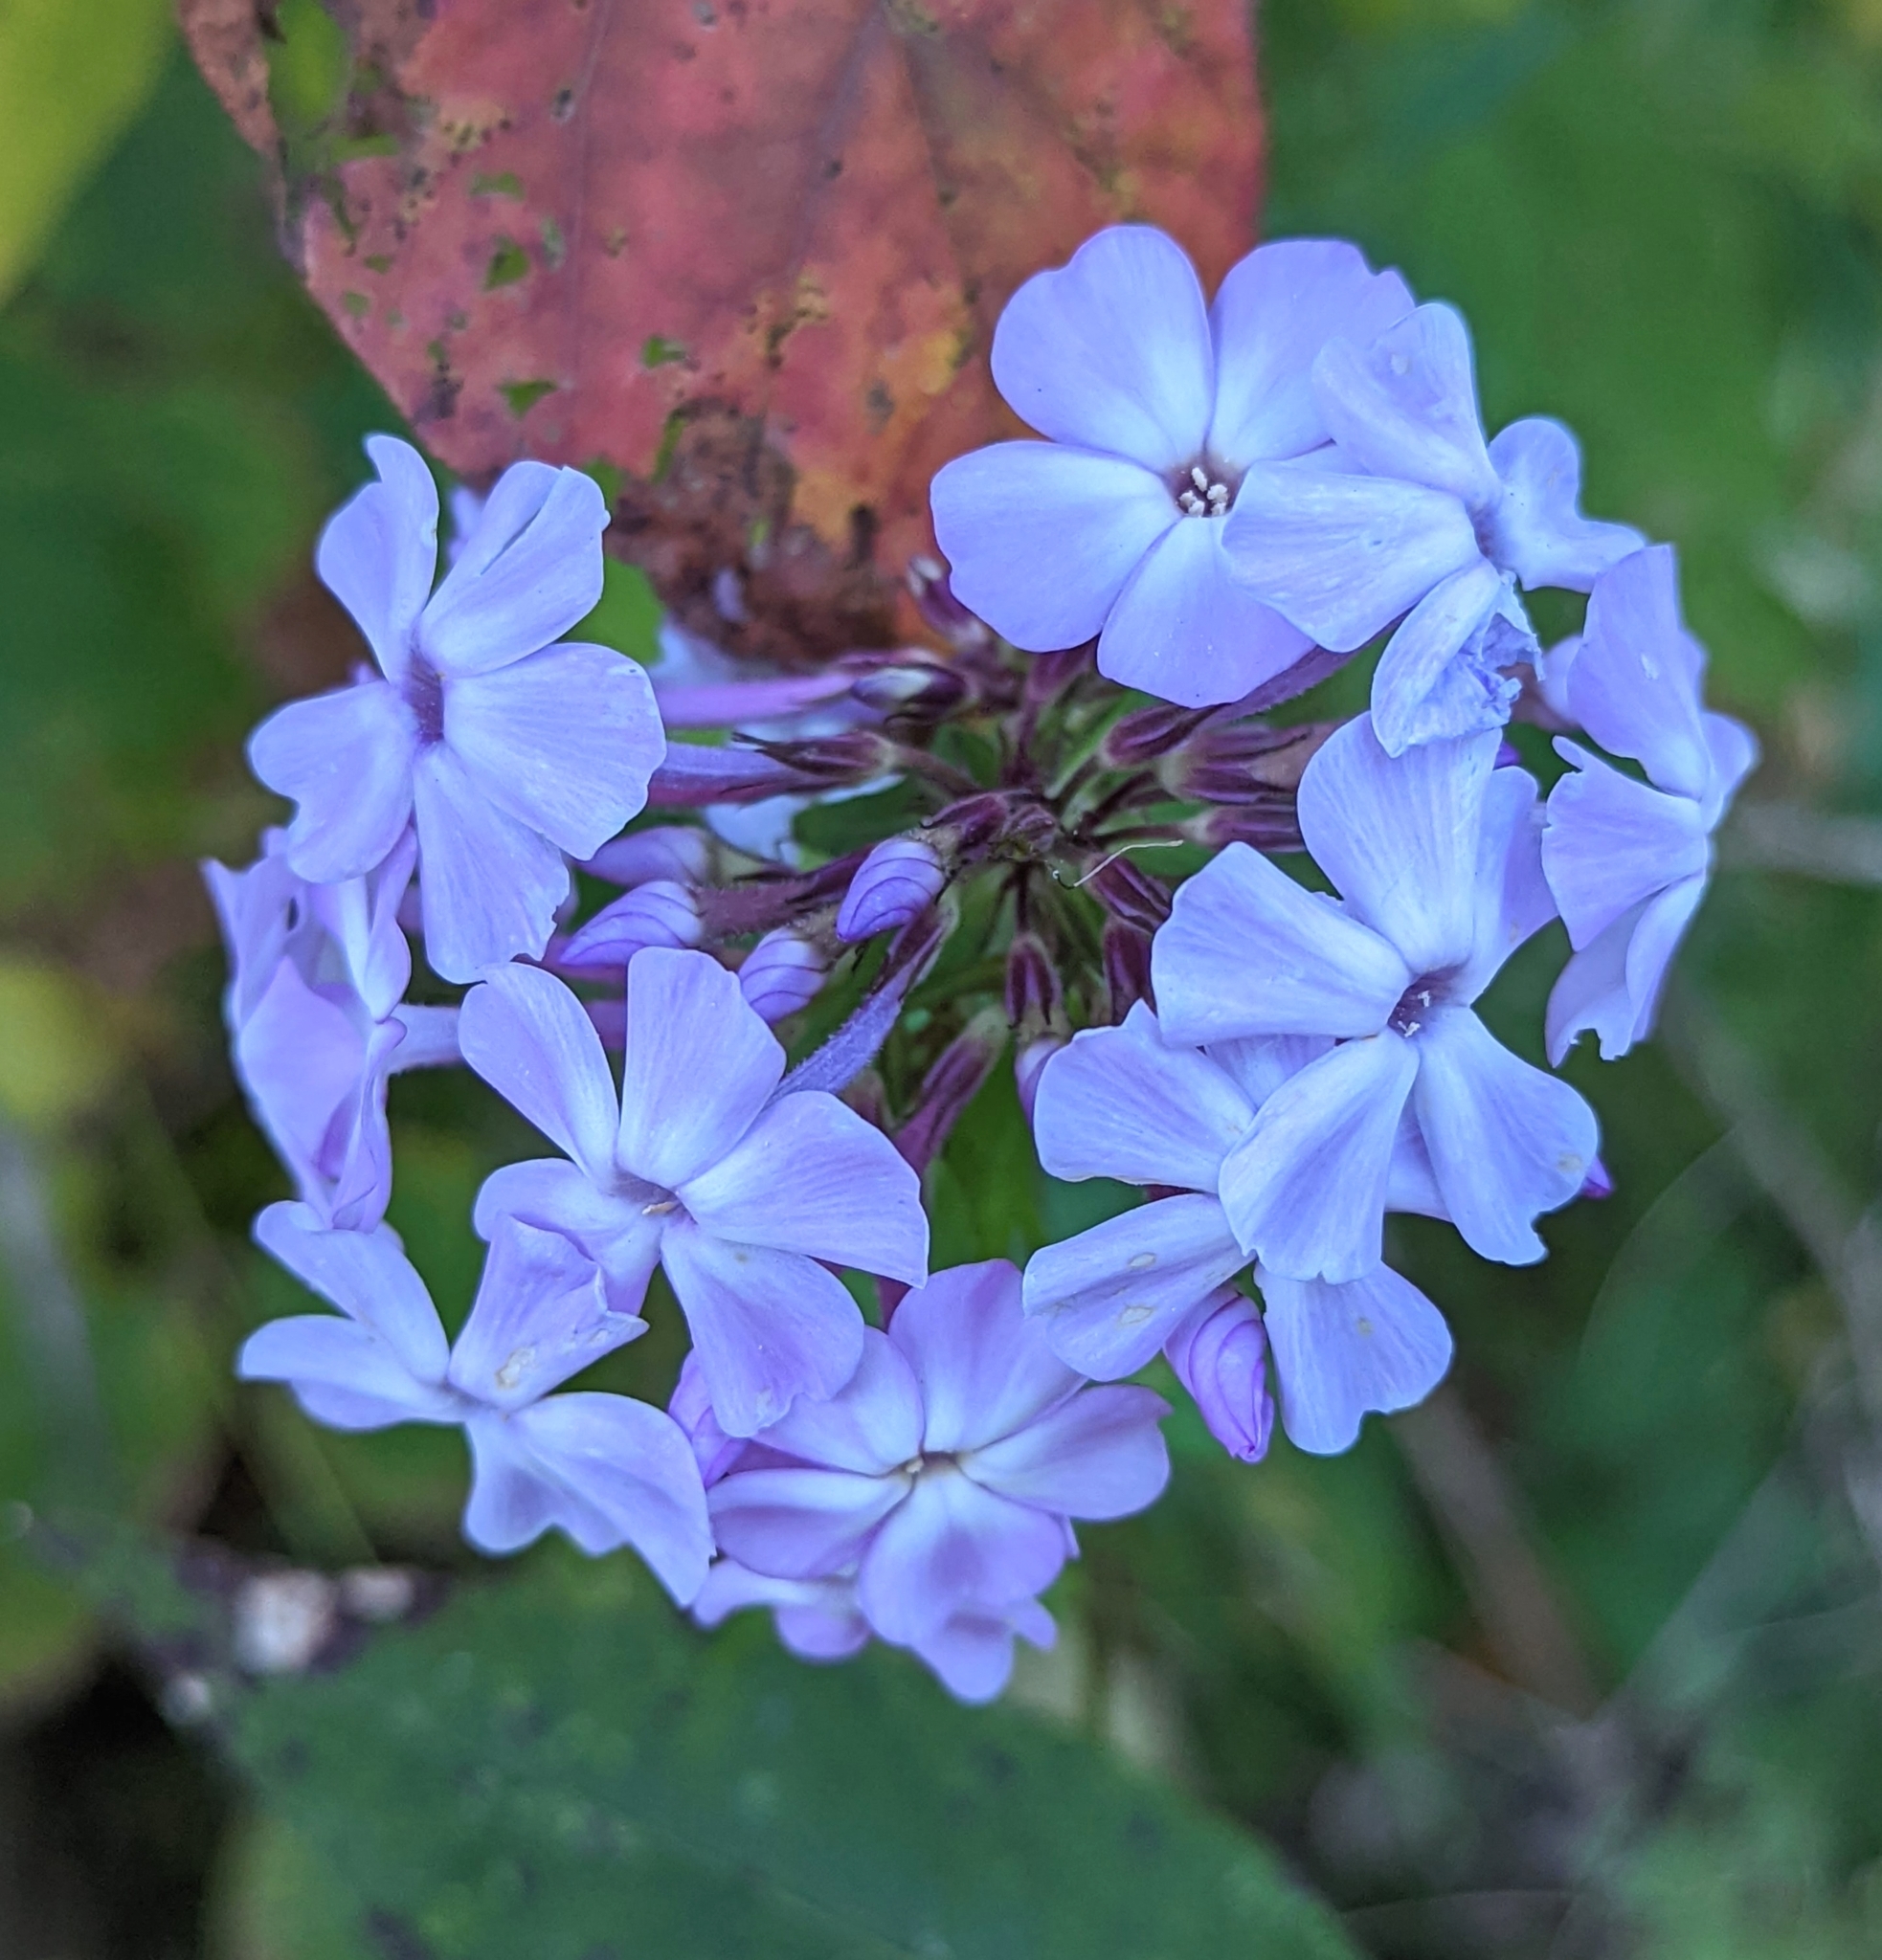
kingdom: Plantae
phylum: Tracheophyta
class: Magnoliopsida
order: Ericales
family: Polemoniaceae
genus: Phlox
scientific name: Phlox paniculata
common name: Fall phlox
